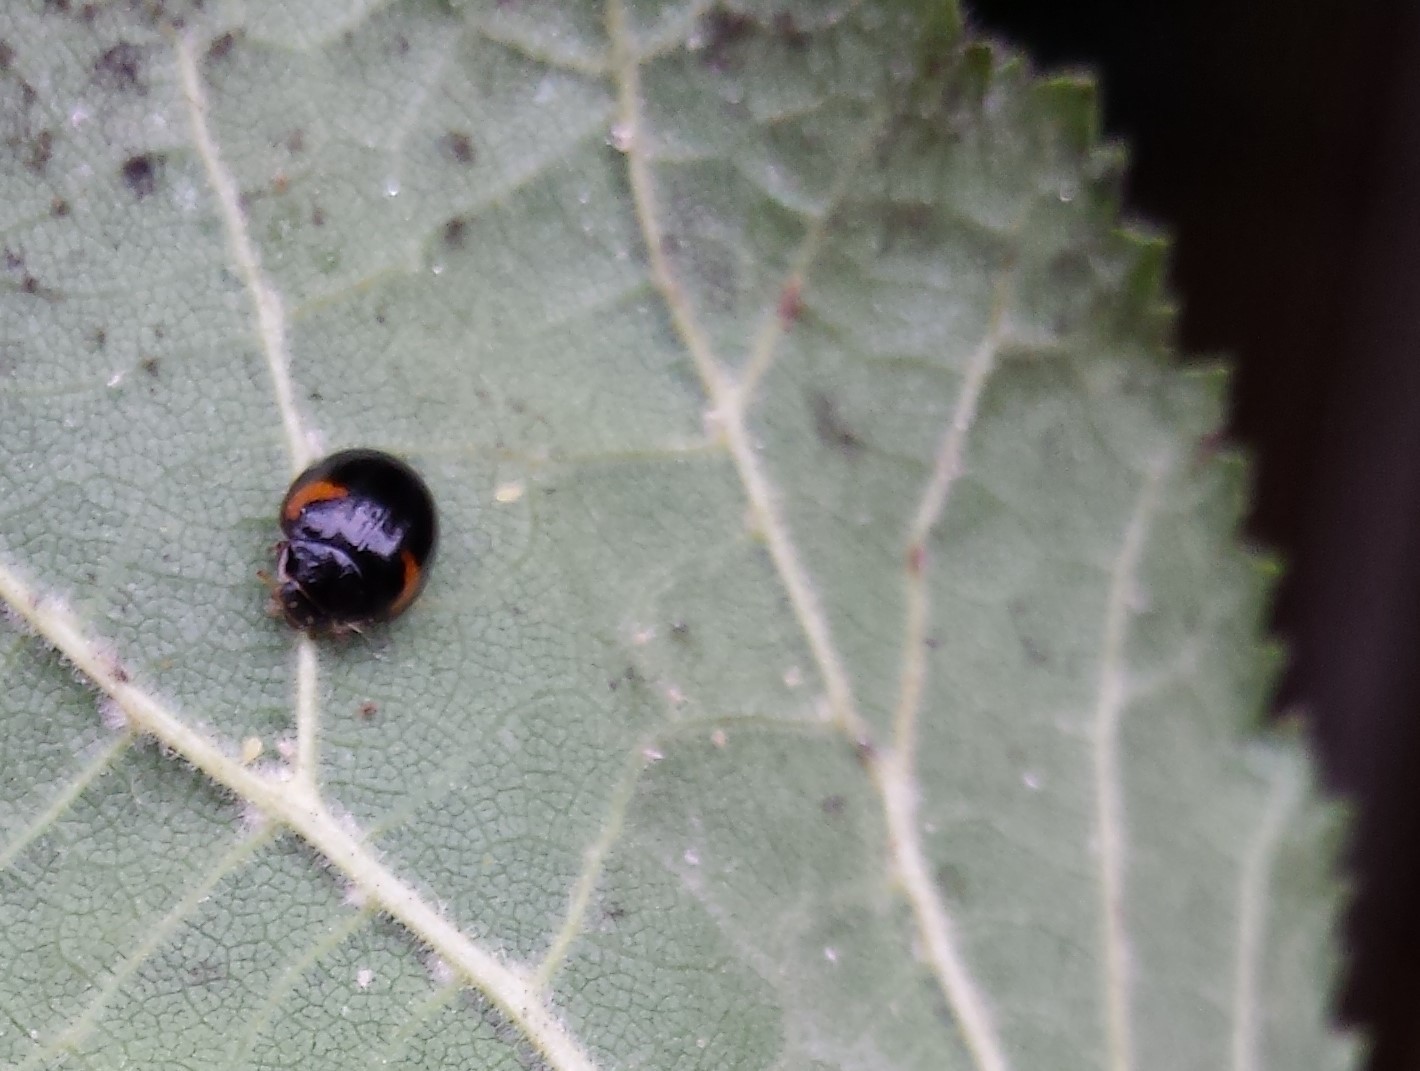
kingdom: Animalia
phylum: Arthropoda
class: Insecta
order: Coleoptera
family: Coccinellidae
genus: Adalia
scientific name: Adalia decempunctata
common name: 10-spot ladybird
